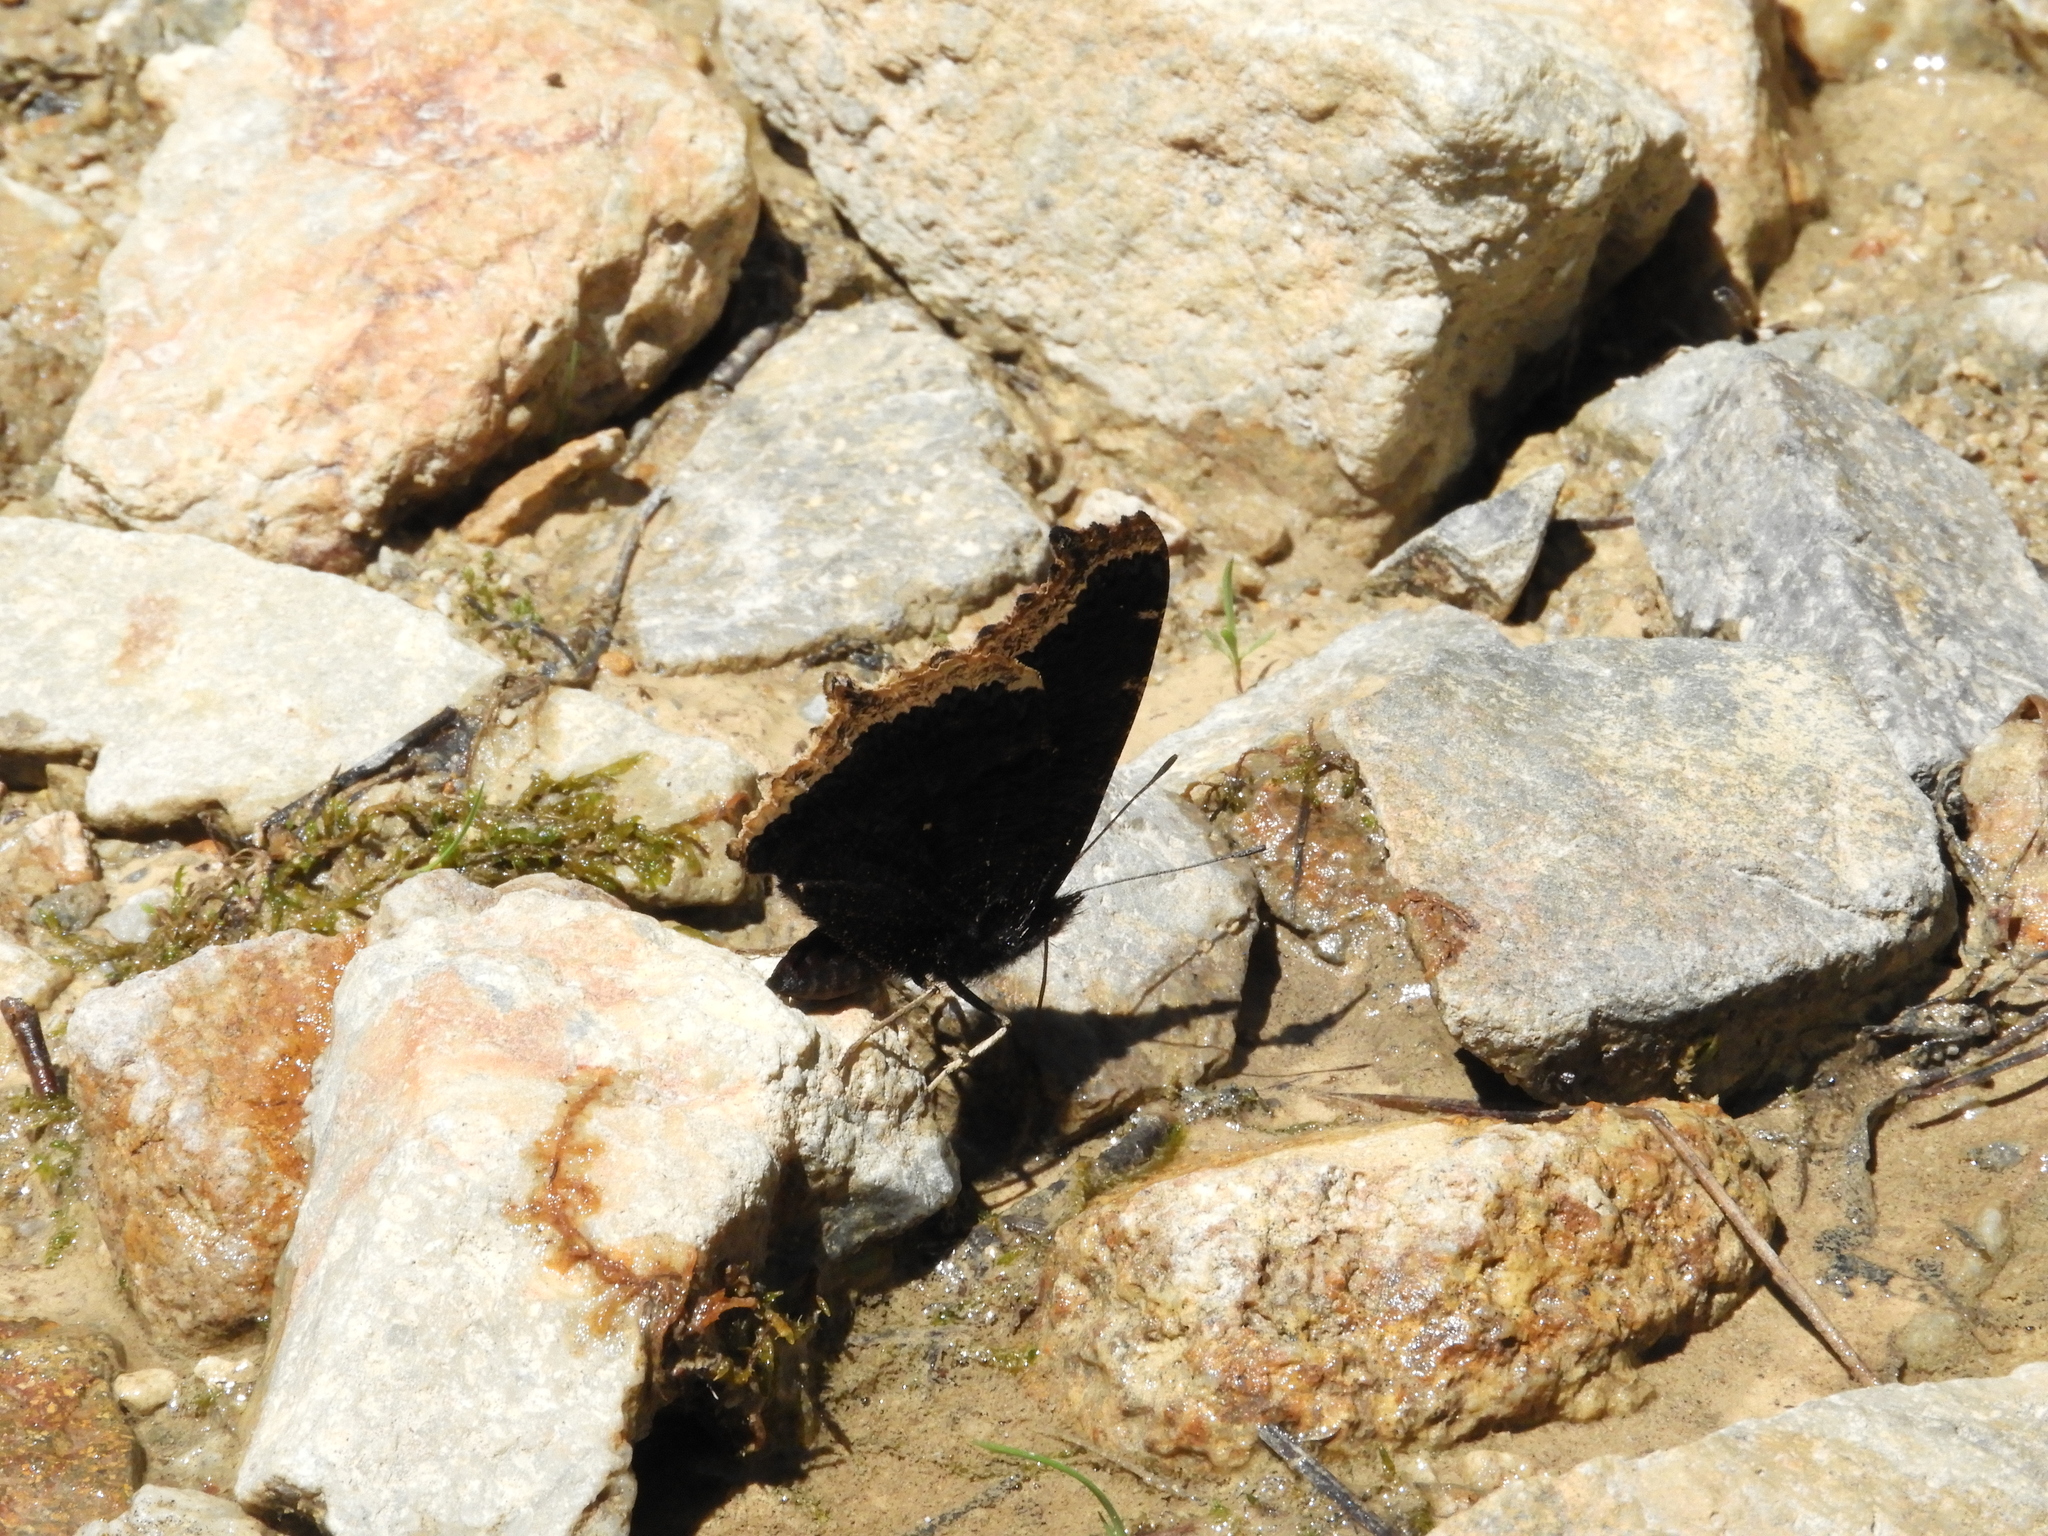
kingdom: Animalia
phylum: Arthropoda
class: Insecta
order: Lepidoptera
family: Nymphalidae
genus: Nymphalis
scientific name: Nymphalis antiopa
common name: Camberwell beauty
